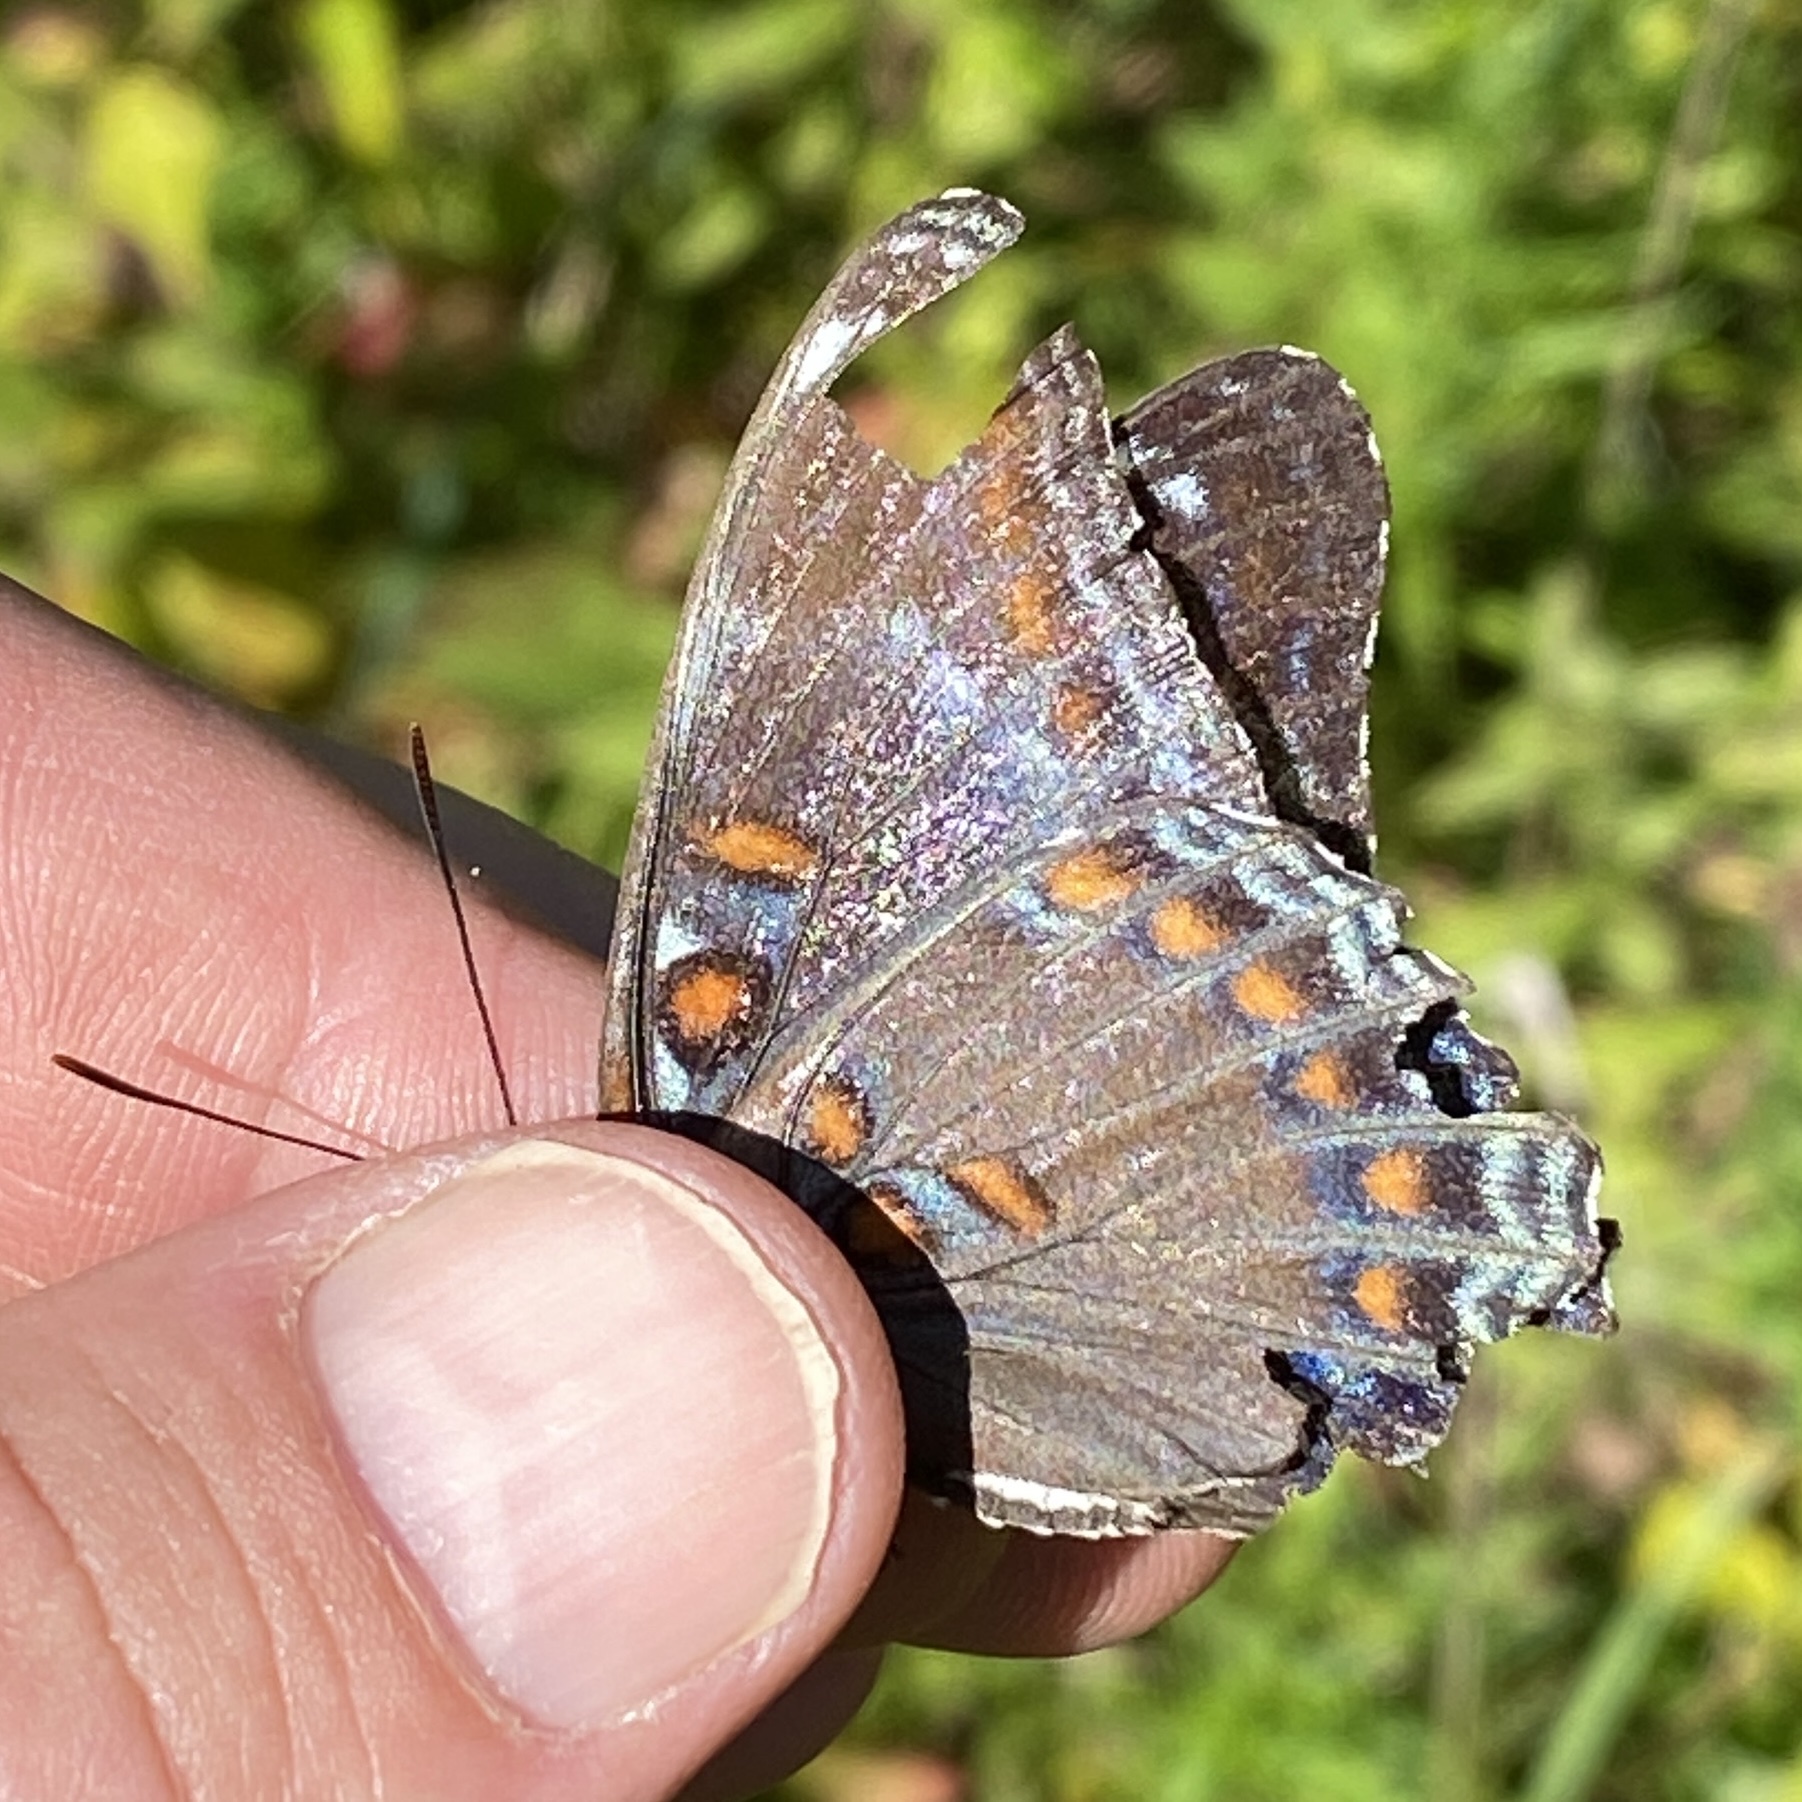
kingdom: Animalia
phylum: Arthropoda
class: Insecta
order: Lepidoptera
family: Nymphalidae
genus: Limenitis
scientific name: Limenitis arthemis
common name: Red-spotted admiral
